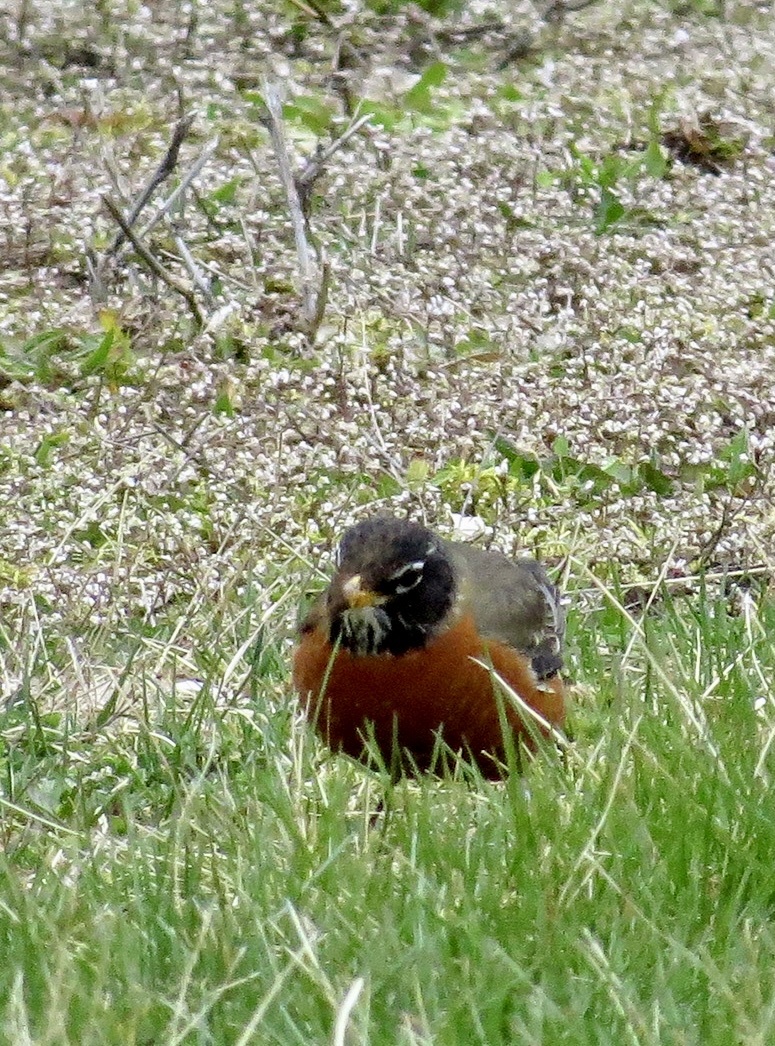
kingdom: Animalia
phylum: Chordata
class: Aves
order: Passeriformes
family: Turdidae
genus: Turdus
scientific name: Turdus migratorius
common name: American robin
